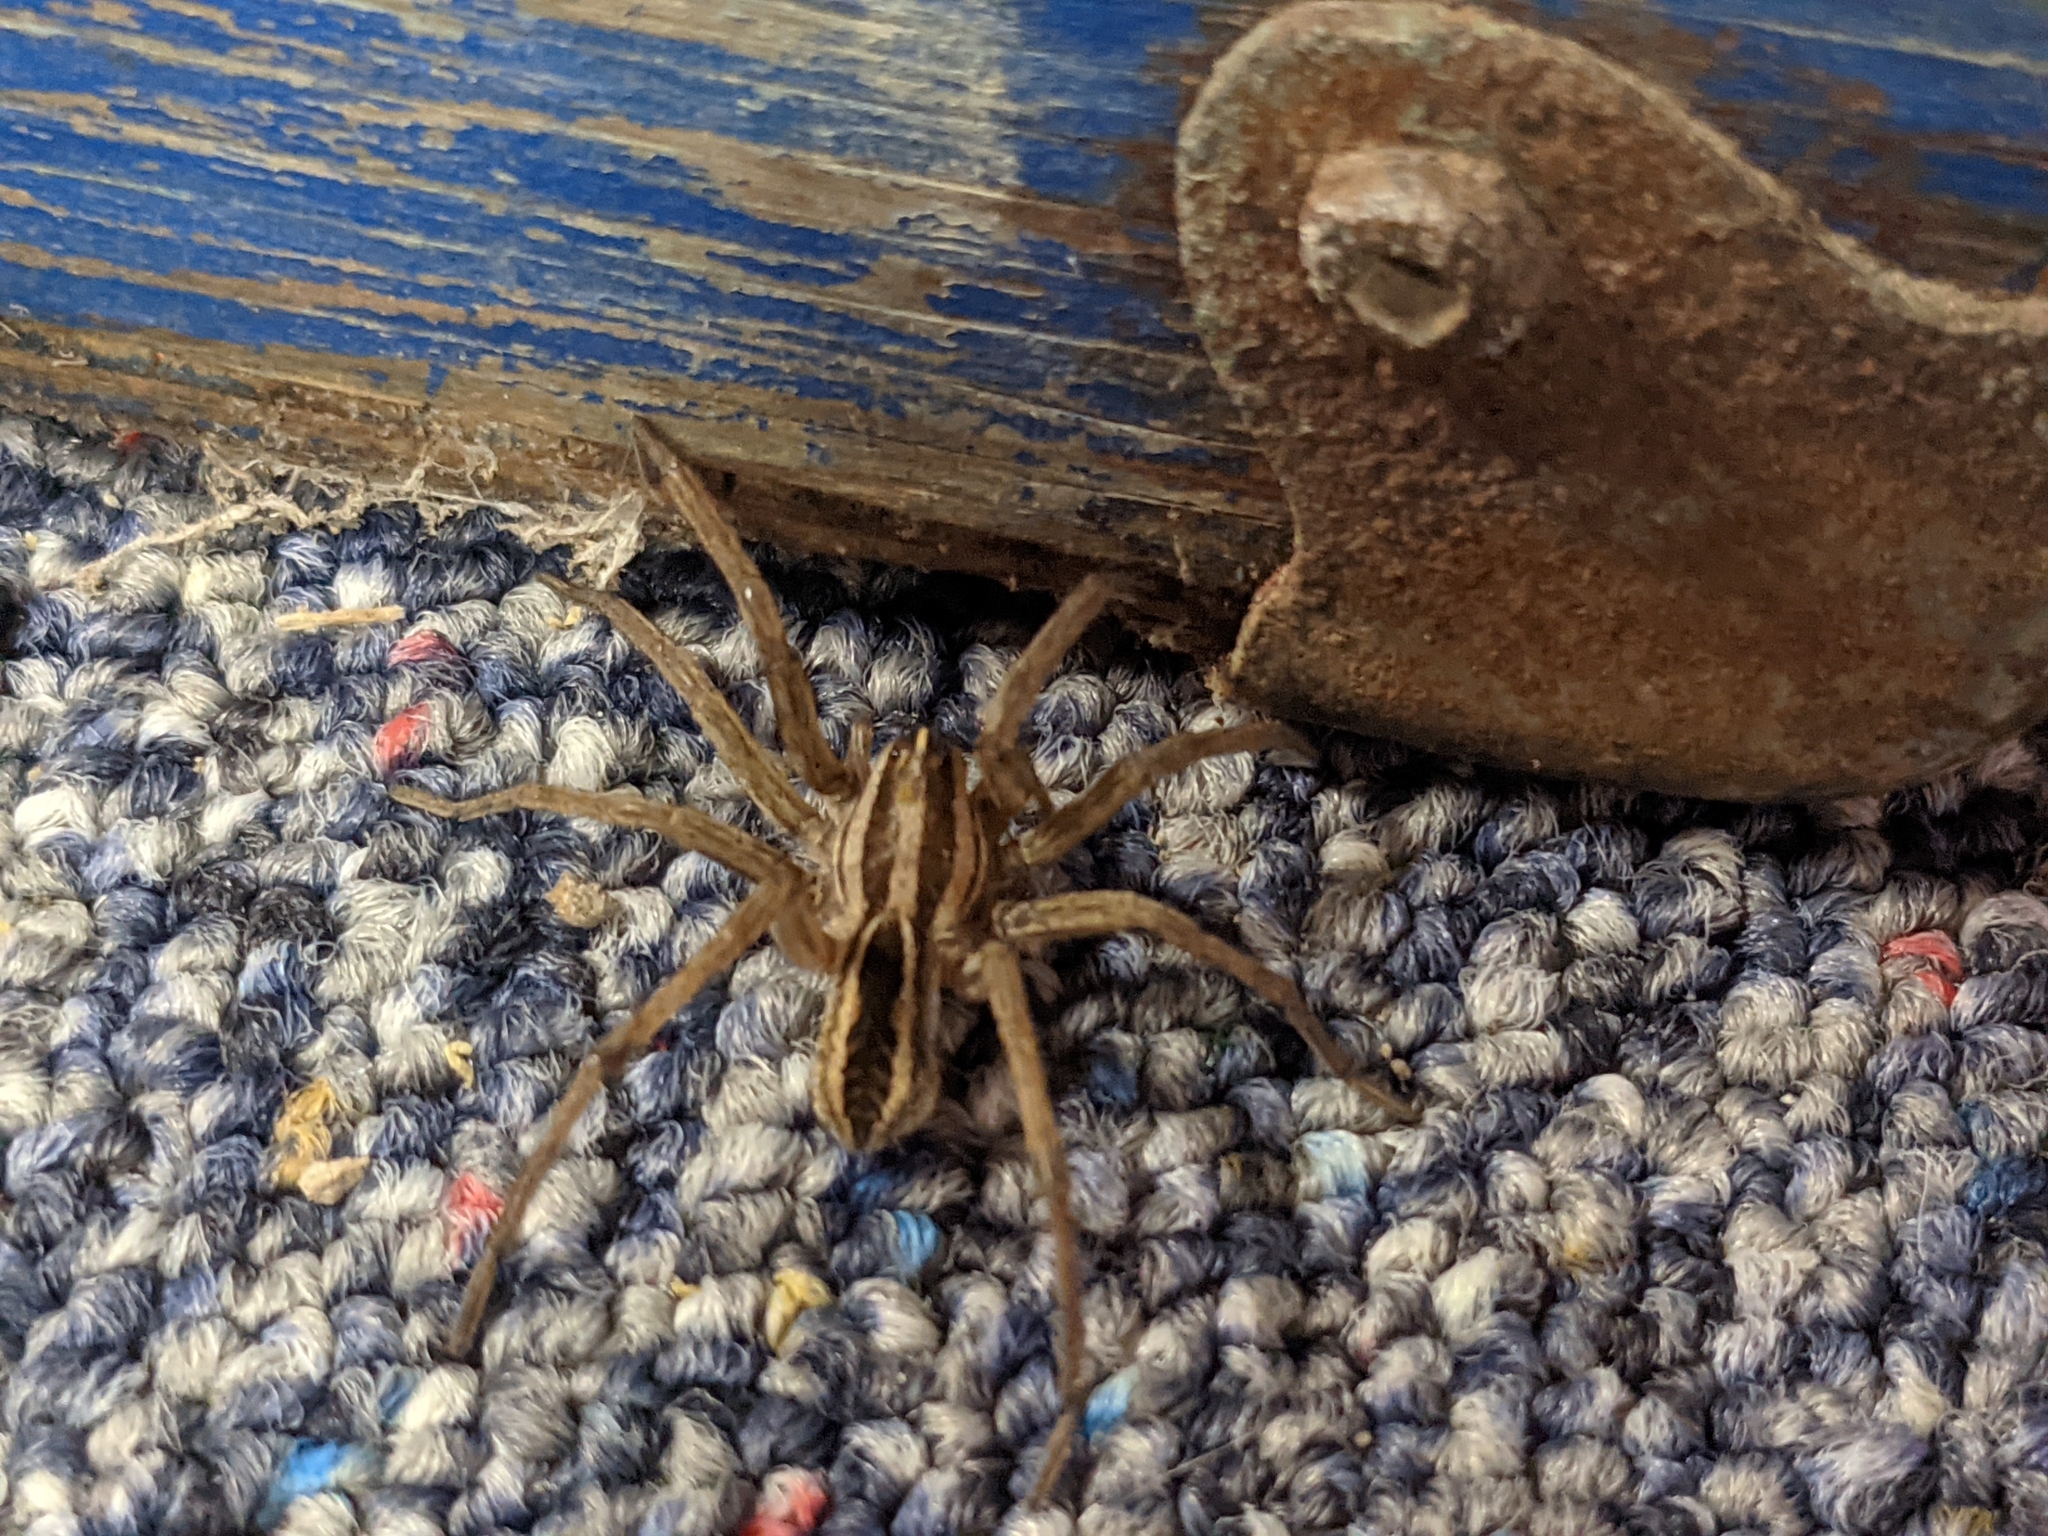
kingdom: Animalia
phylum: Arthropoda
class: Arachnida
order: Araneae
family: Lycosidae
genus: Rabidosa
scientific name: Rabidosa rabida
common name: Rabid wolf spider
